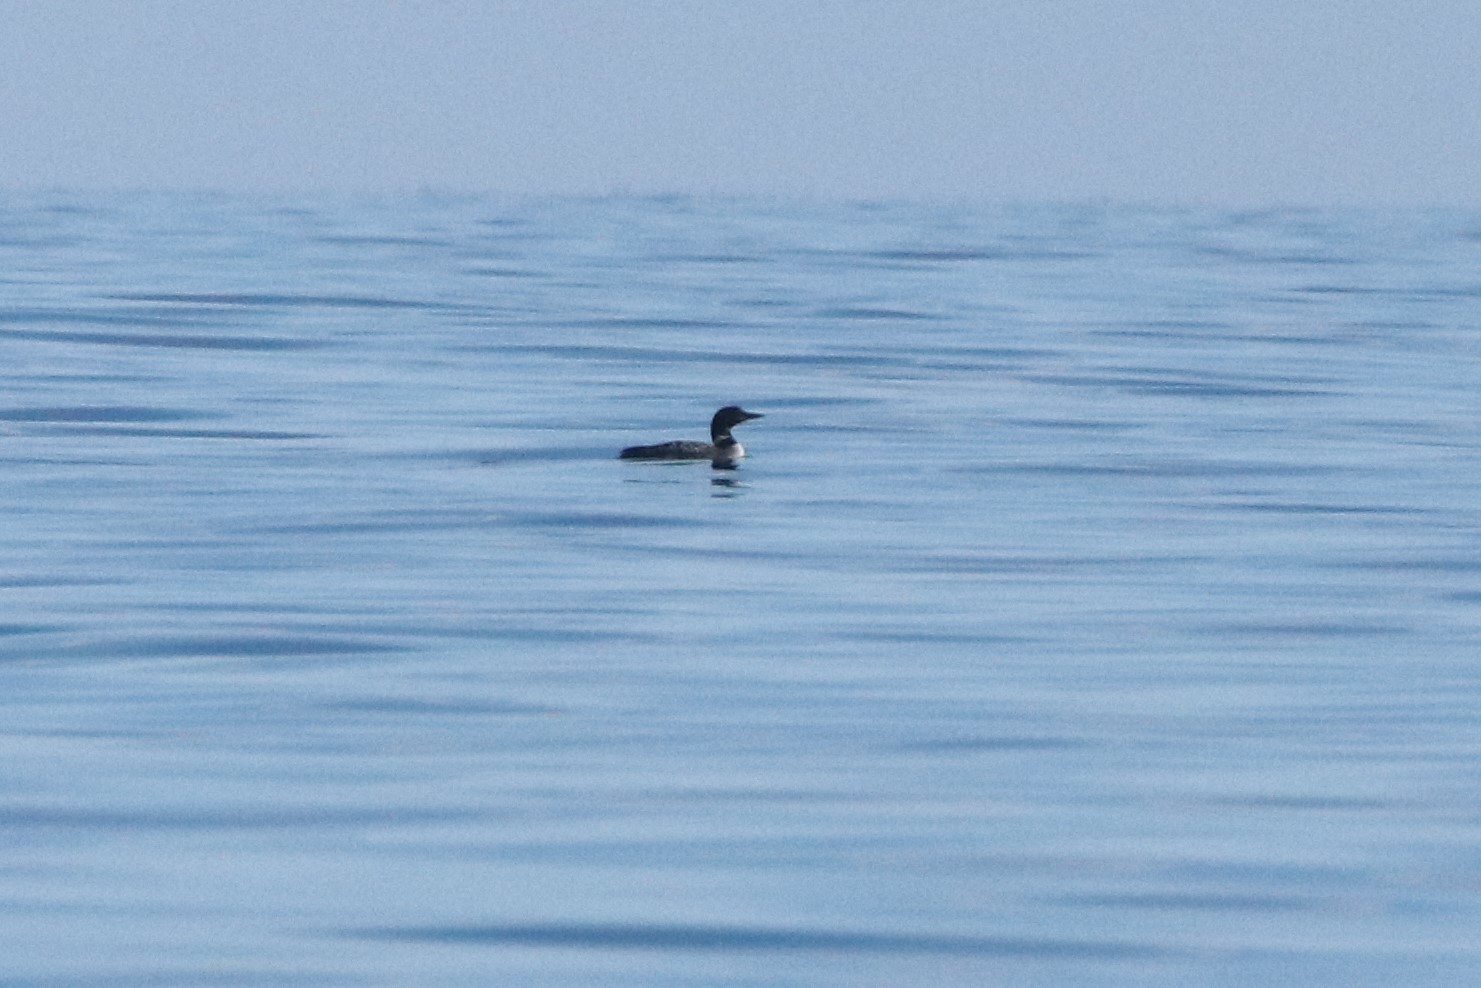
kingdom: Animalia
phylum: Chordata
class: Aves
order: Gaviiformes
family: Gaviidae
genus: Gavia
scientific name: Gavia immer
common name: Common loon
